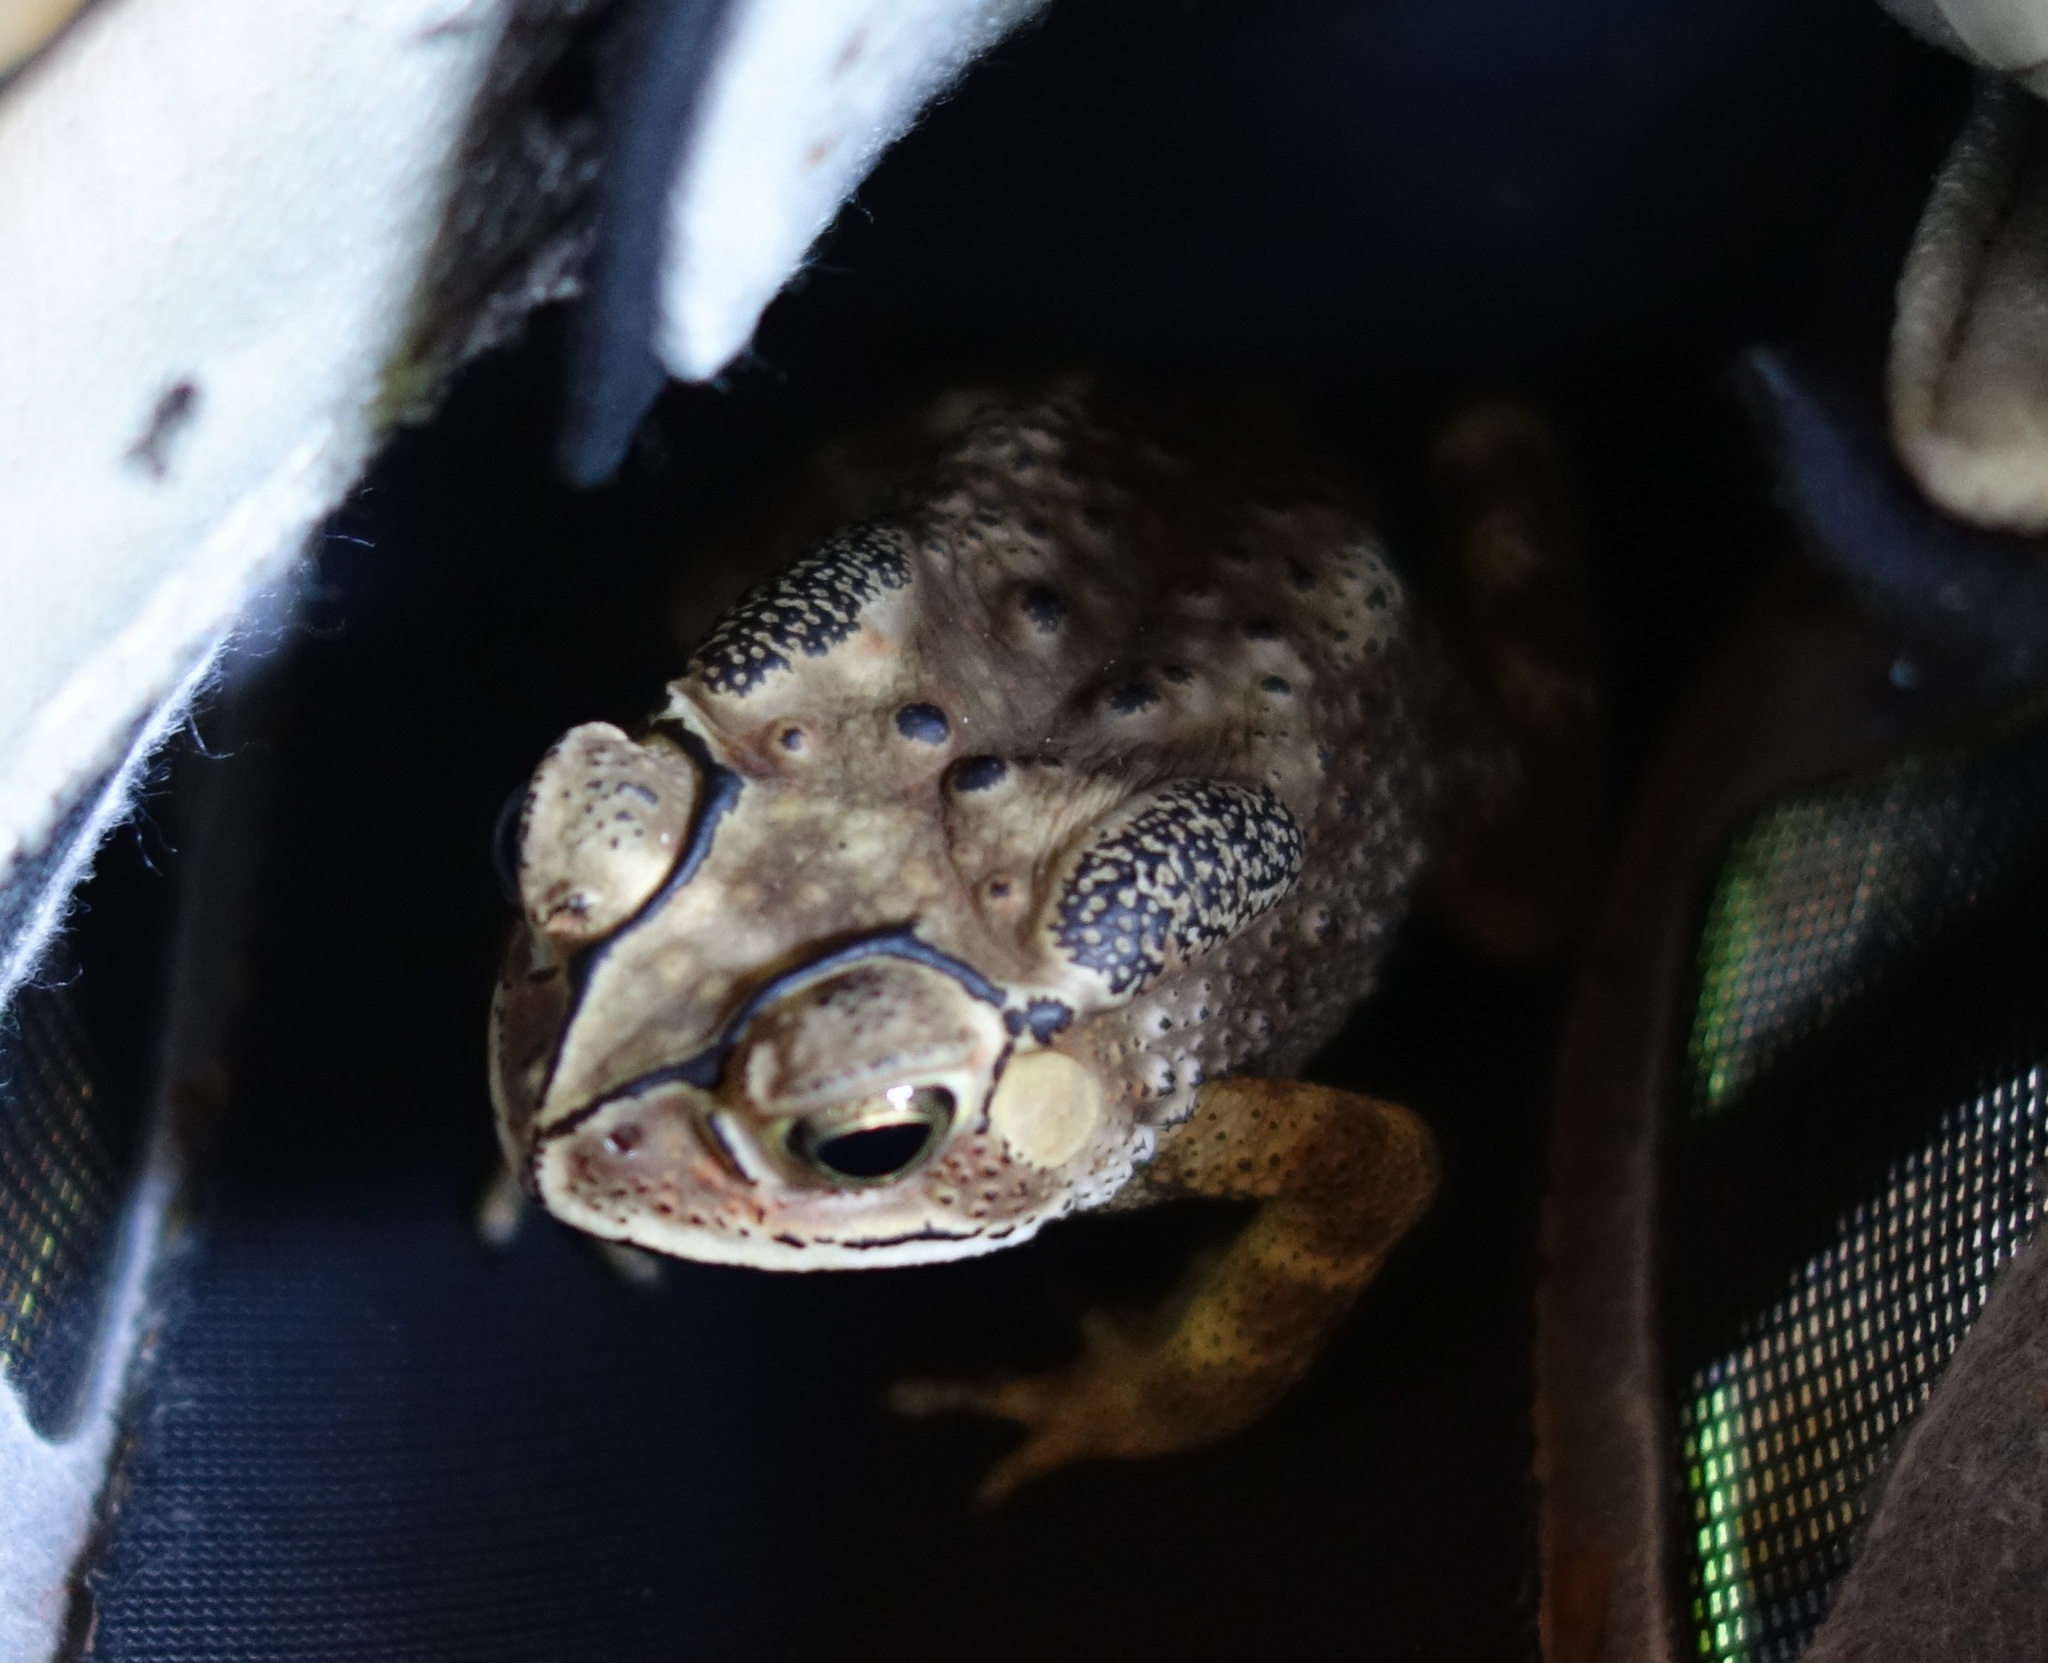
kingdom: Animalia
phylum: Chordata
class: Amphibia
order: Anura
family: Bufonidae
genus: Duttaphrynus
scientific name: Duttaphrynus melanostictus
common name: Common sunda toad
